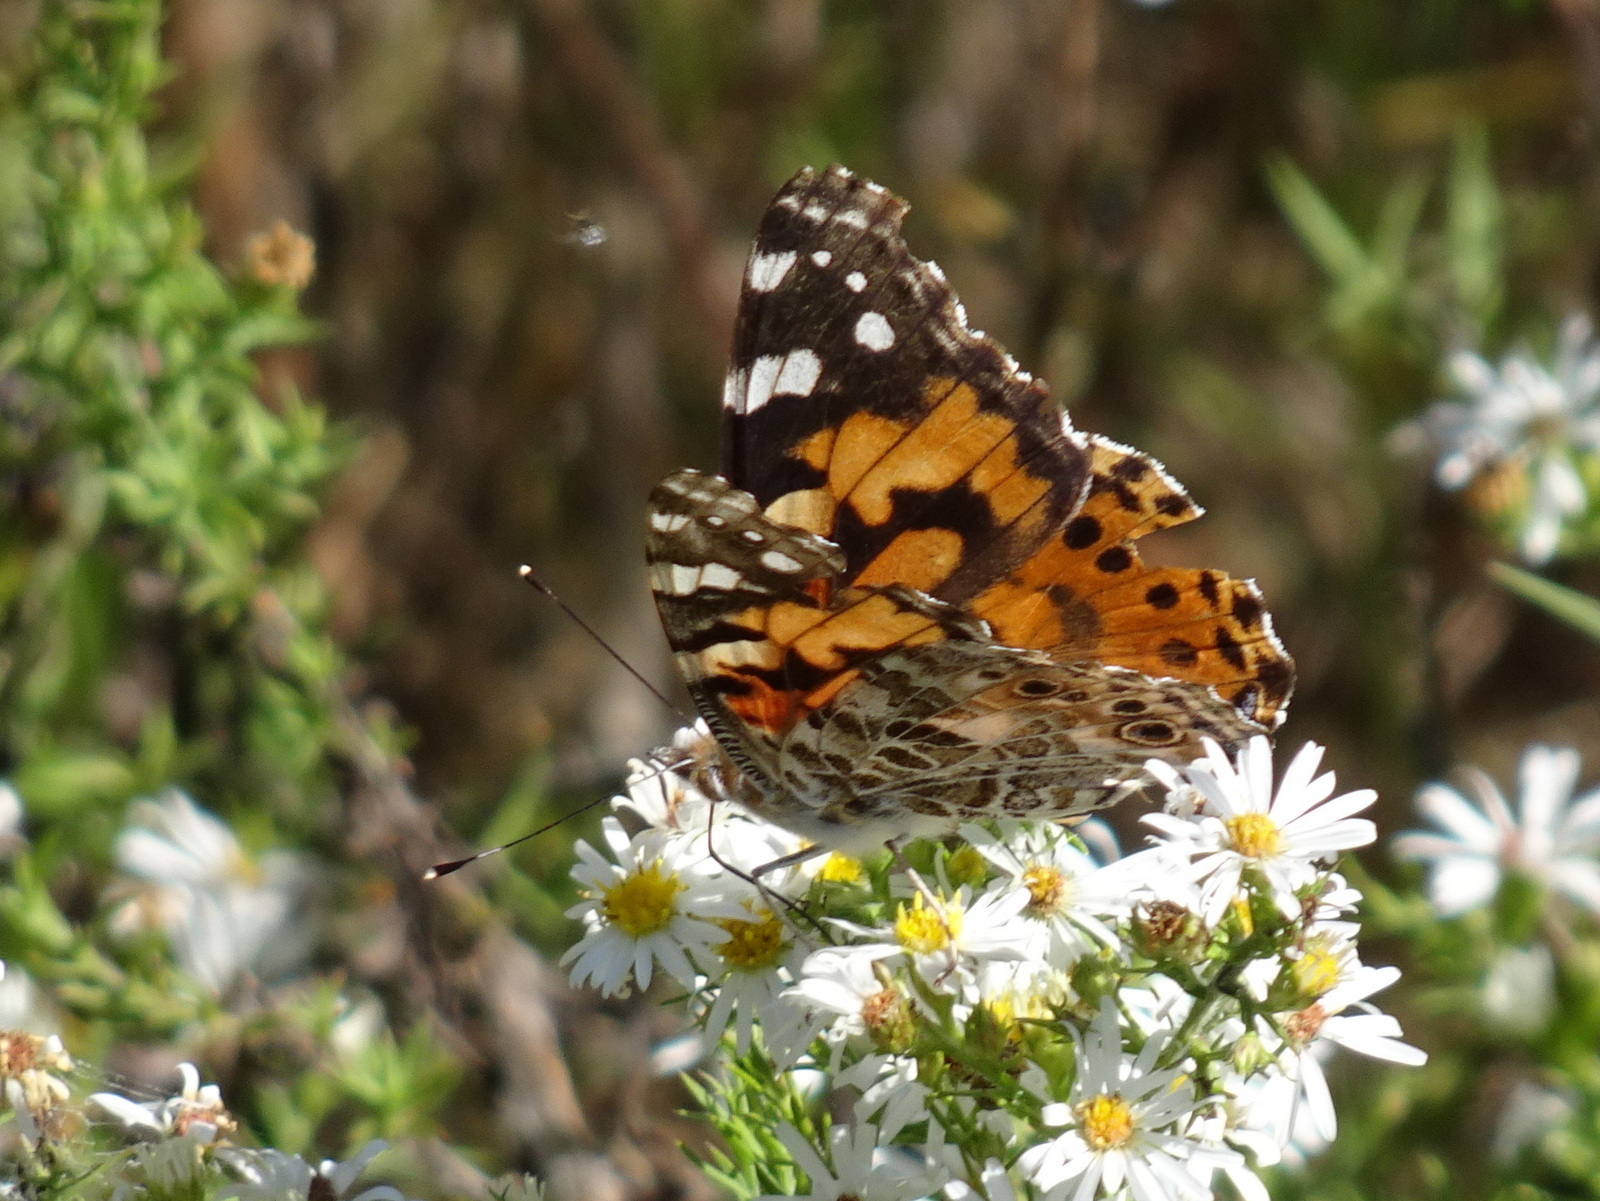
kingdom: Animalia
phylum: Arthropoda
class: Insecta
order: Lepidoptera
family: Nymphalidae
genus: Vanessa
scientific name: Vanessa cardui
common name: Painted lady
